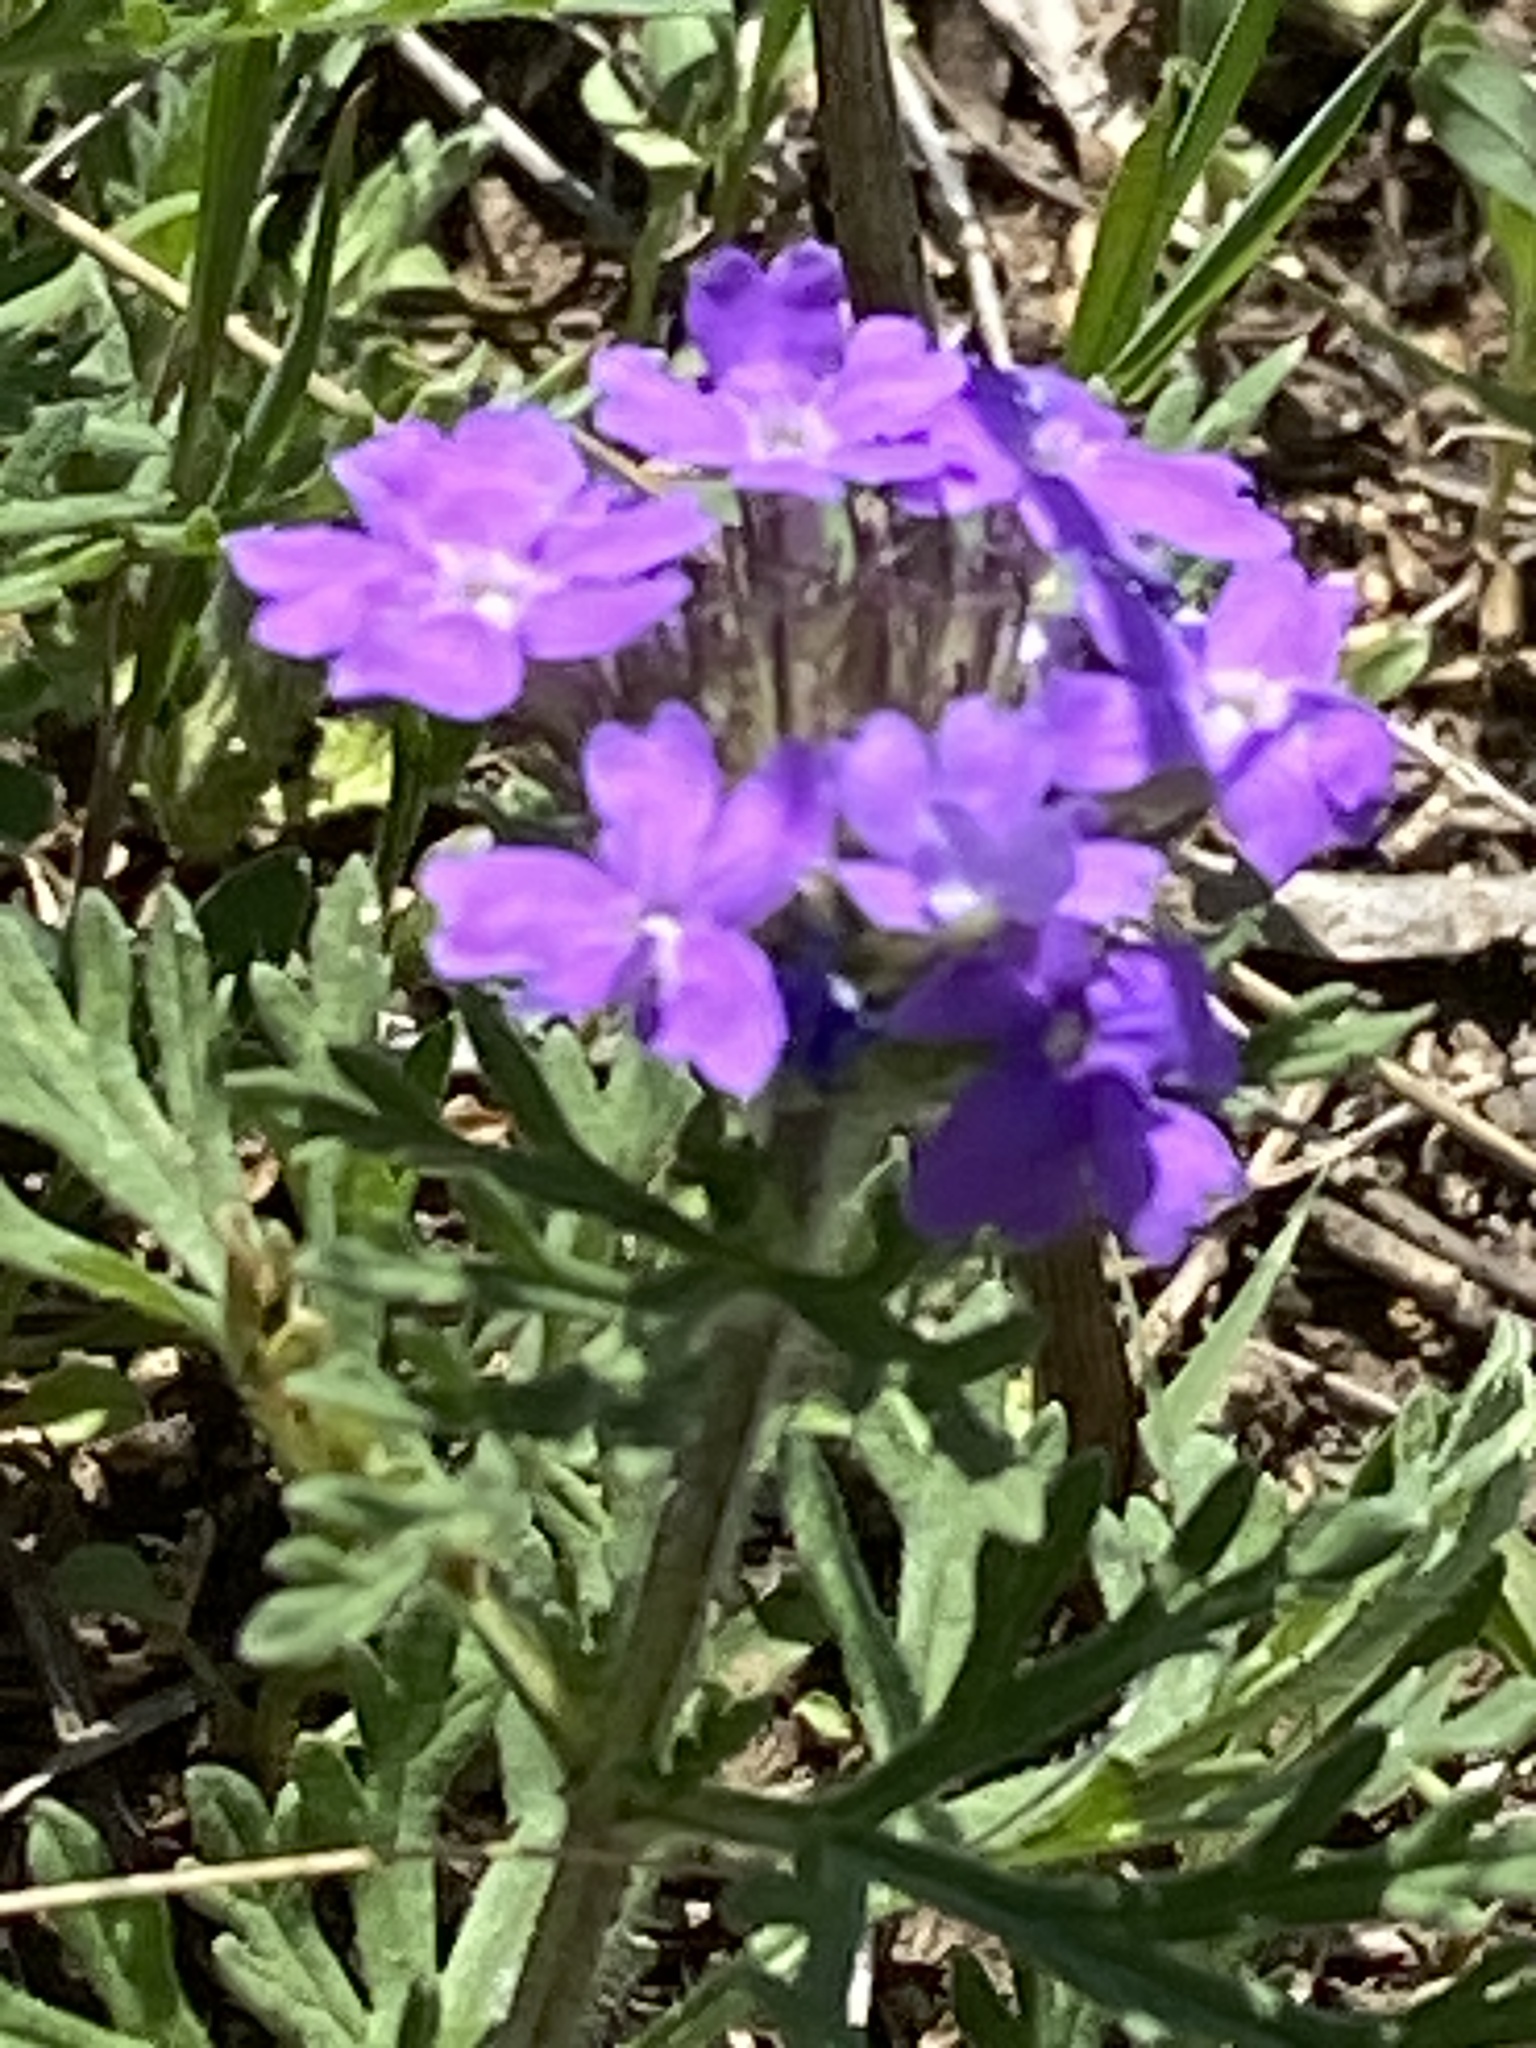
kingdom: Plantae
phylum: Tracheophyta
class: Magnoliopsida
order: Lamiales
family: Verbenaceae
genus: Verbena
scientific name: Verbena bipinnatifida
